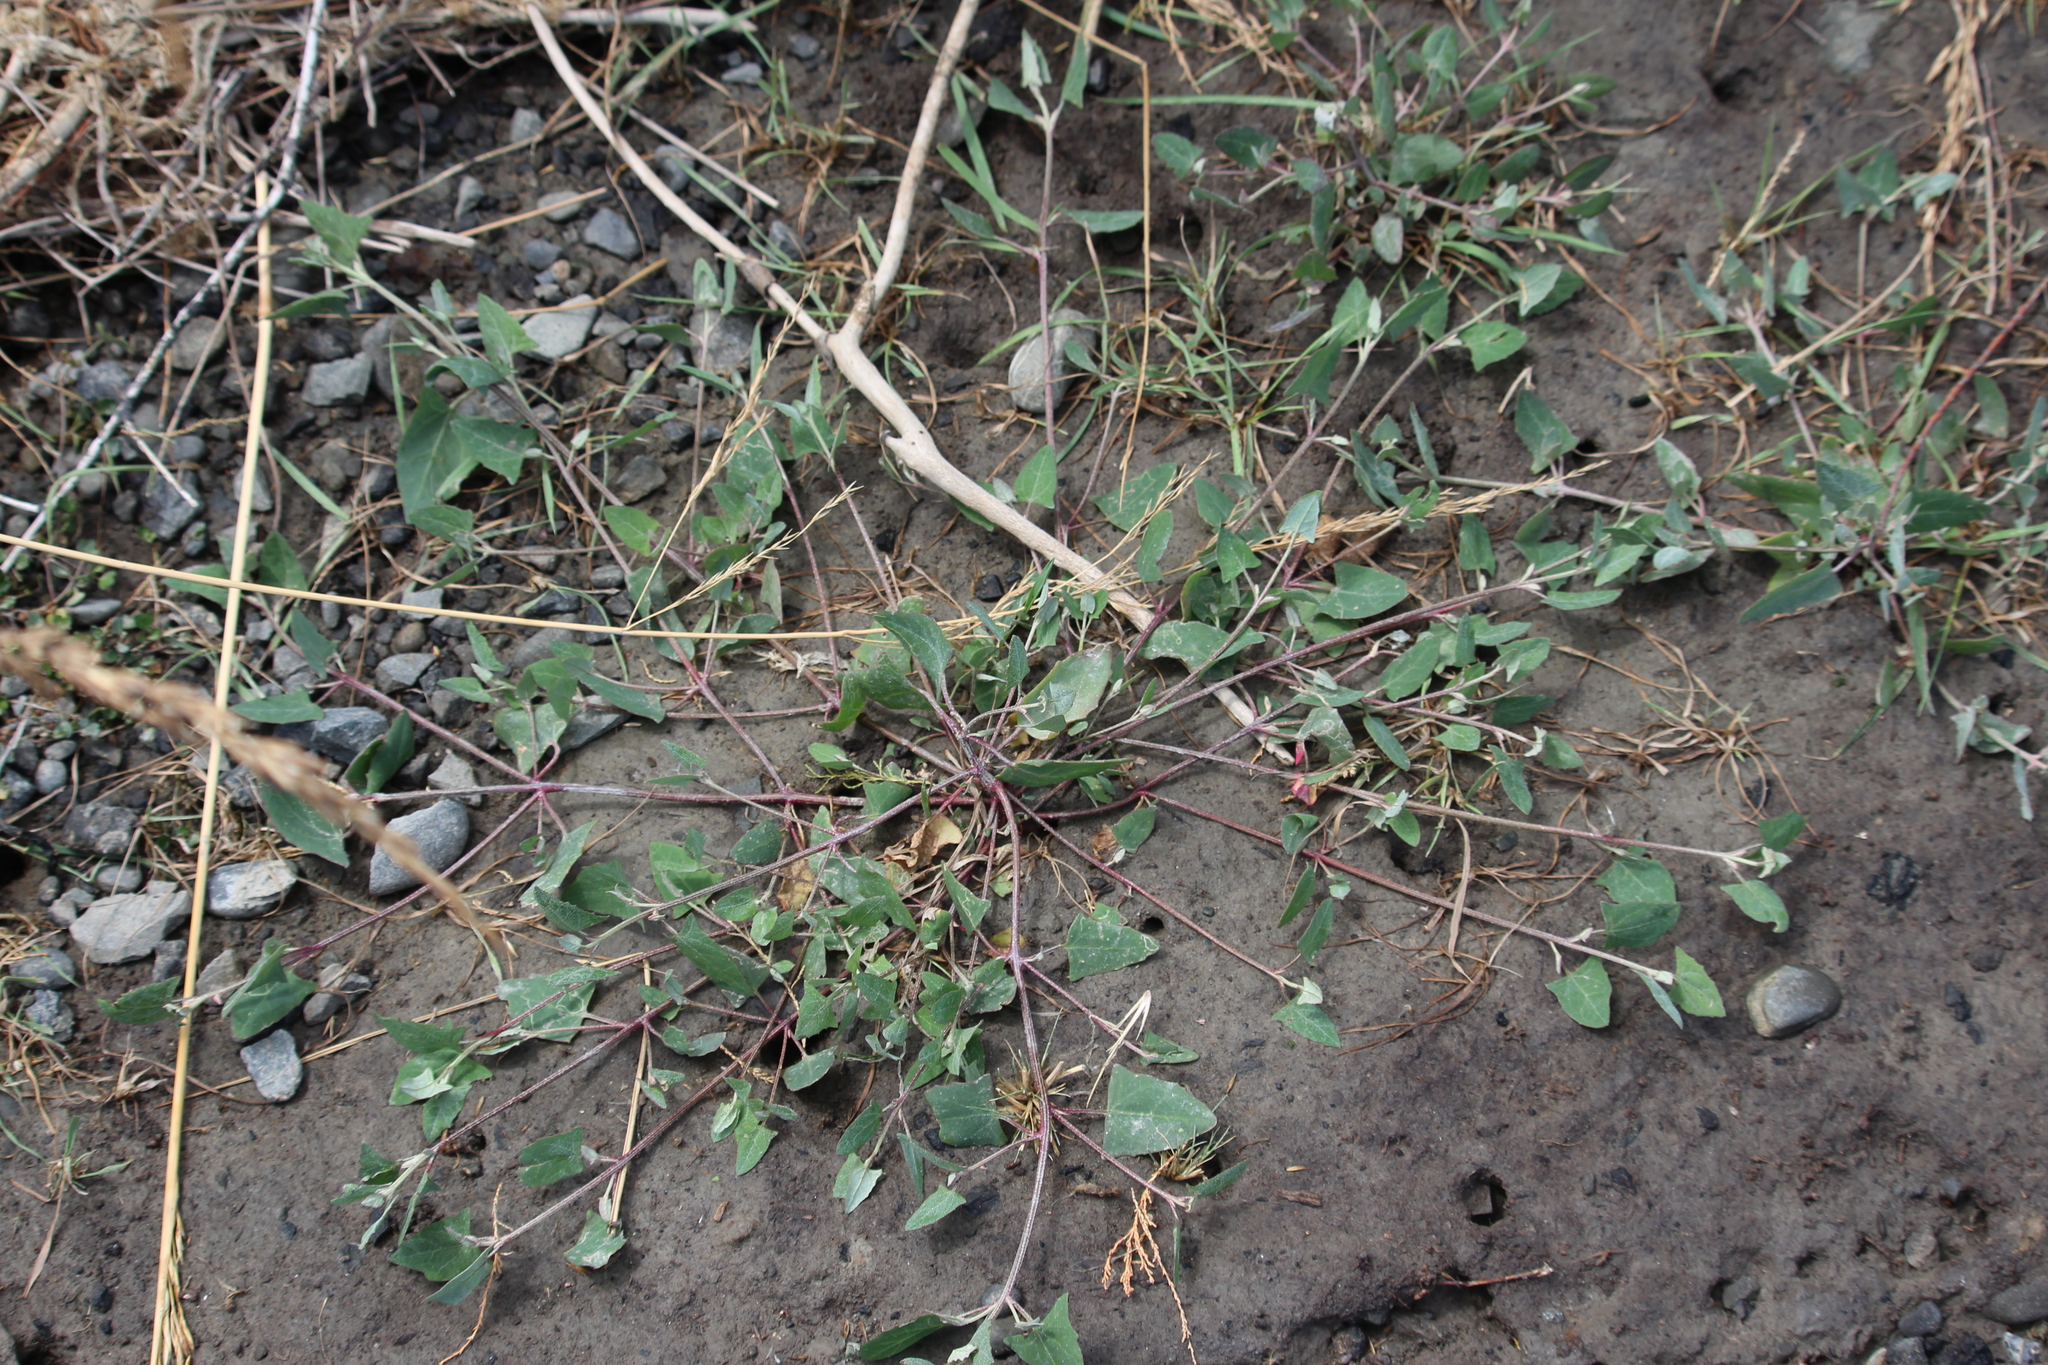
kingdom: Plantae
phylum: Tracheophyta
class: Magnoliopsida
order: Caryophyllales
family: Amaranthaceae
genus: Atriplex
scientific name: Atriplex prostrata
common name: Spear-leaved orache
